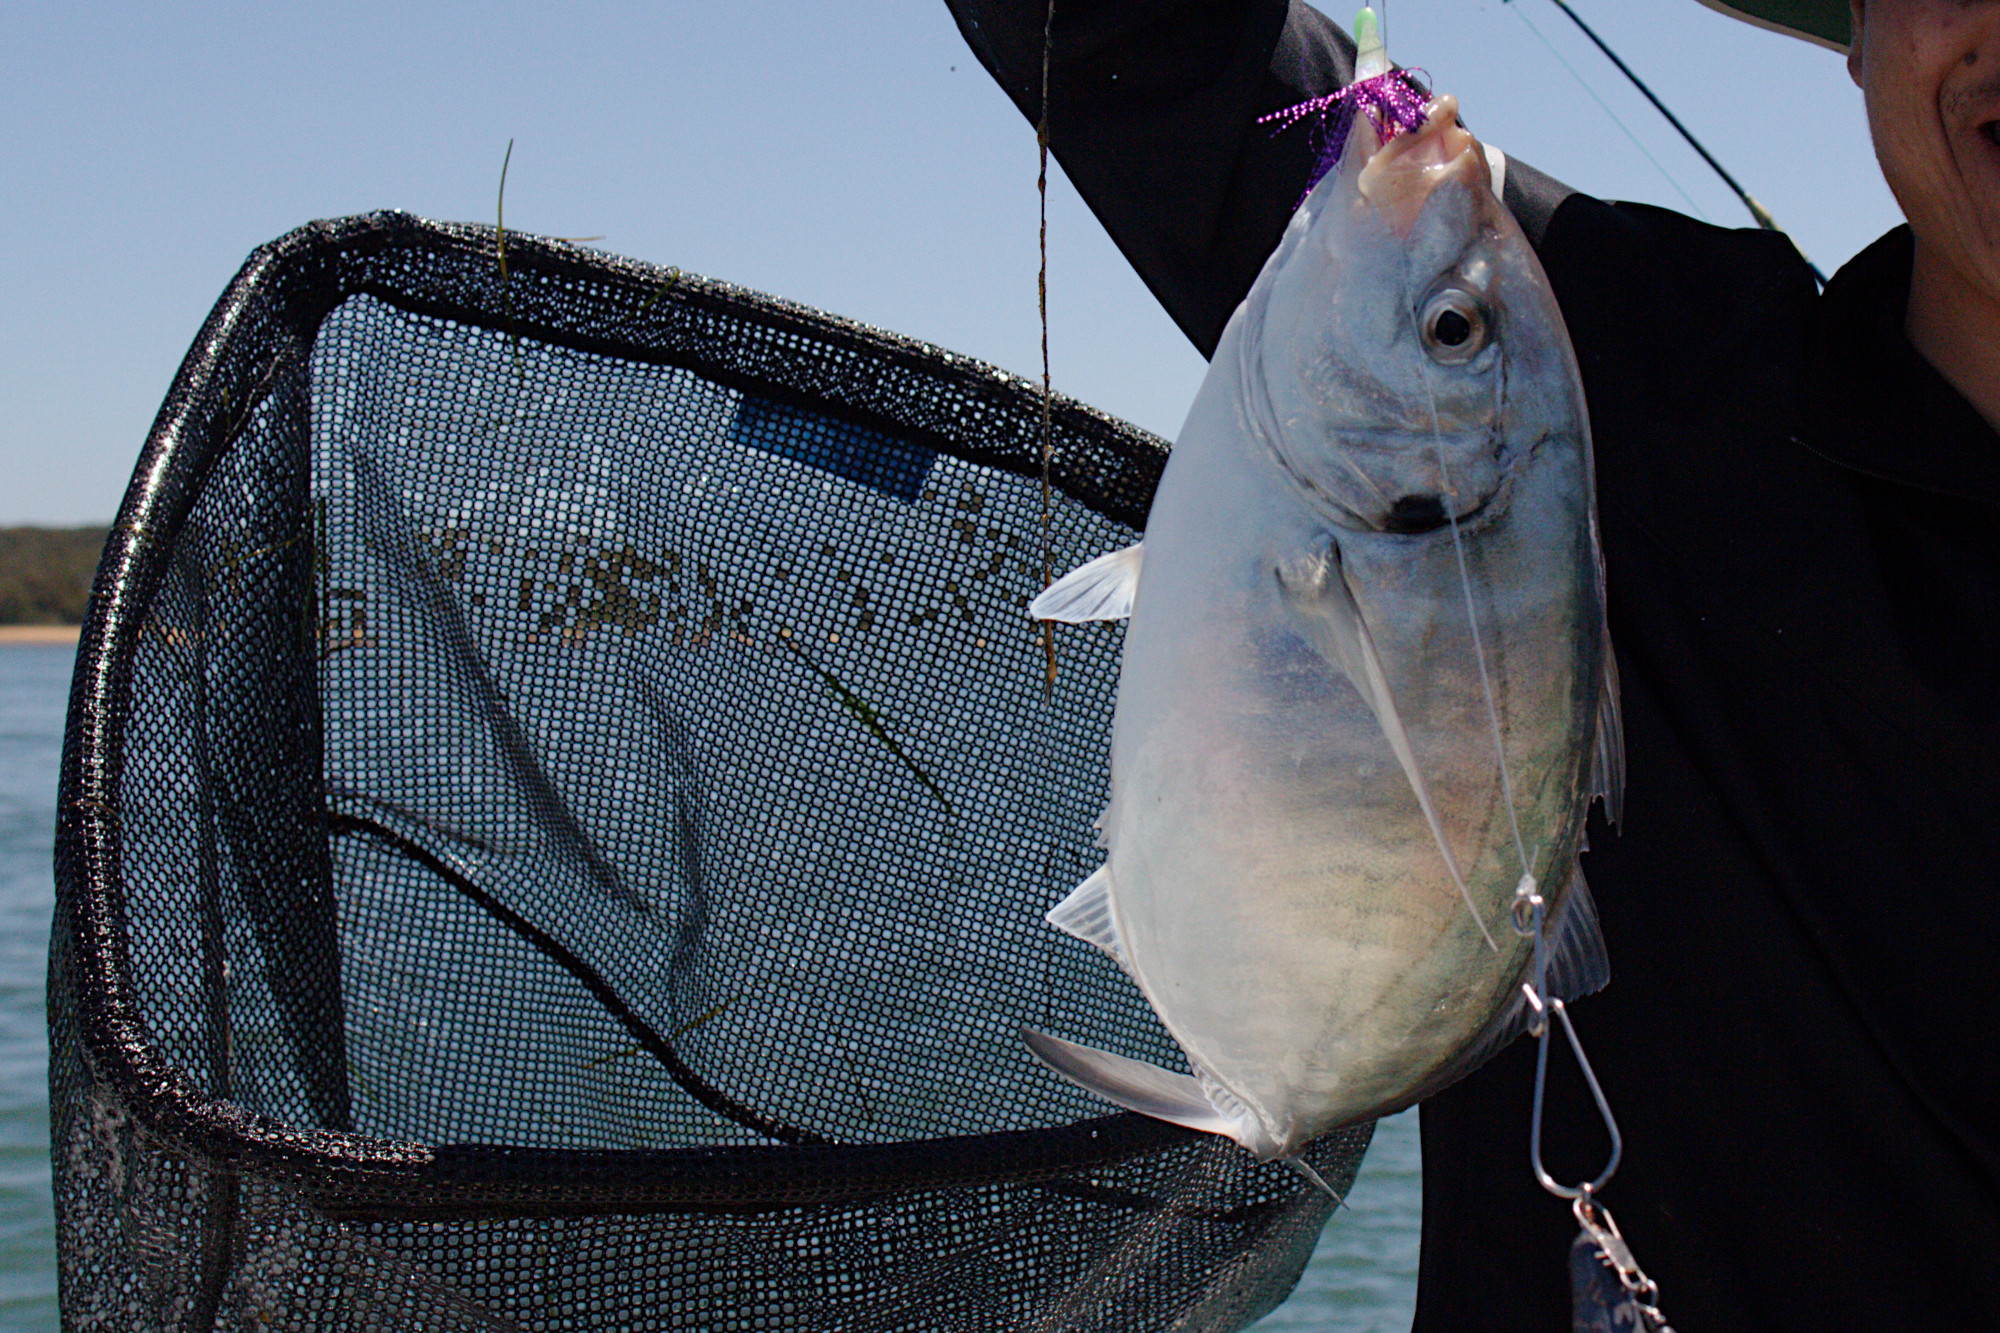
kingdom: Animalia
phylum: Chordata
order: Perciformes
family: Carangidae
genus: Pseudocaranx
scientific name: Pseudocaranx dentex
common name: White trevally
